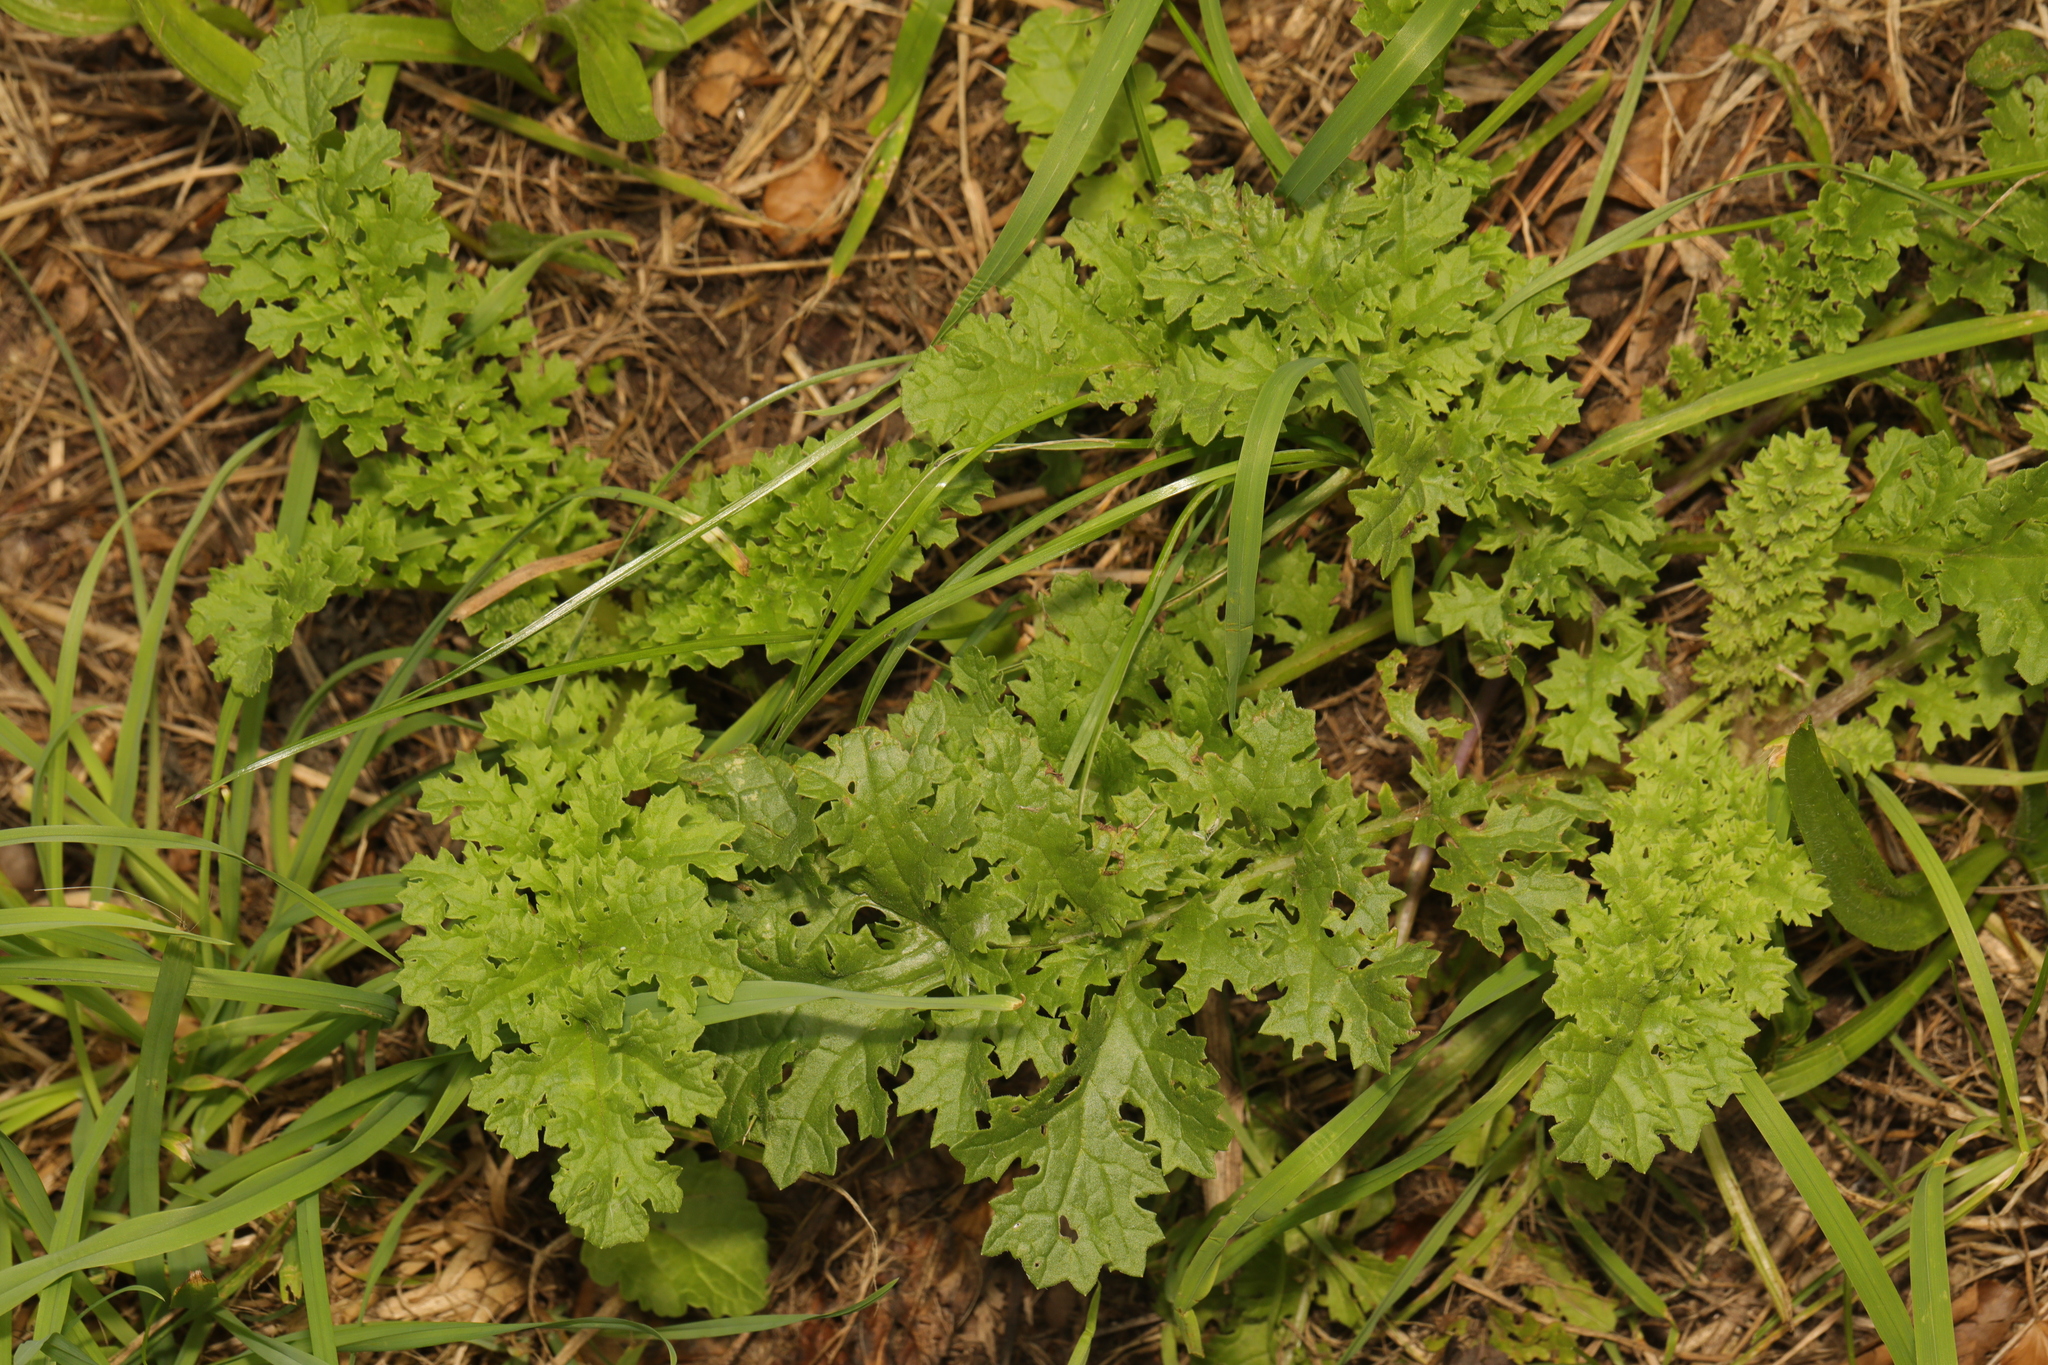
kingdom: Plantae
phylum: Tracheophyta
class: Magnoliopsida
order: Asterales
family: Asteraceae
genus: Jacobaea
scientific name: Jacobaea vulgaris
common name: Stinking willie
